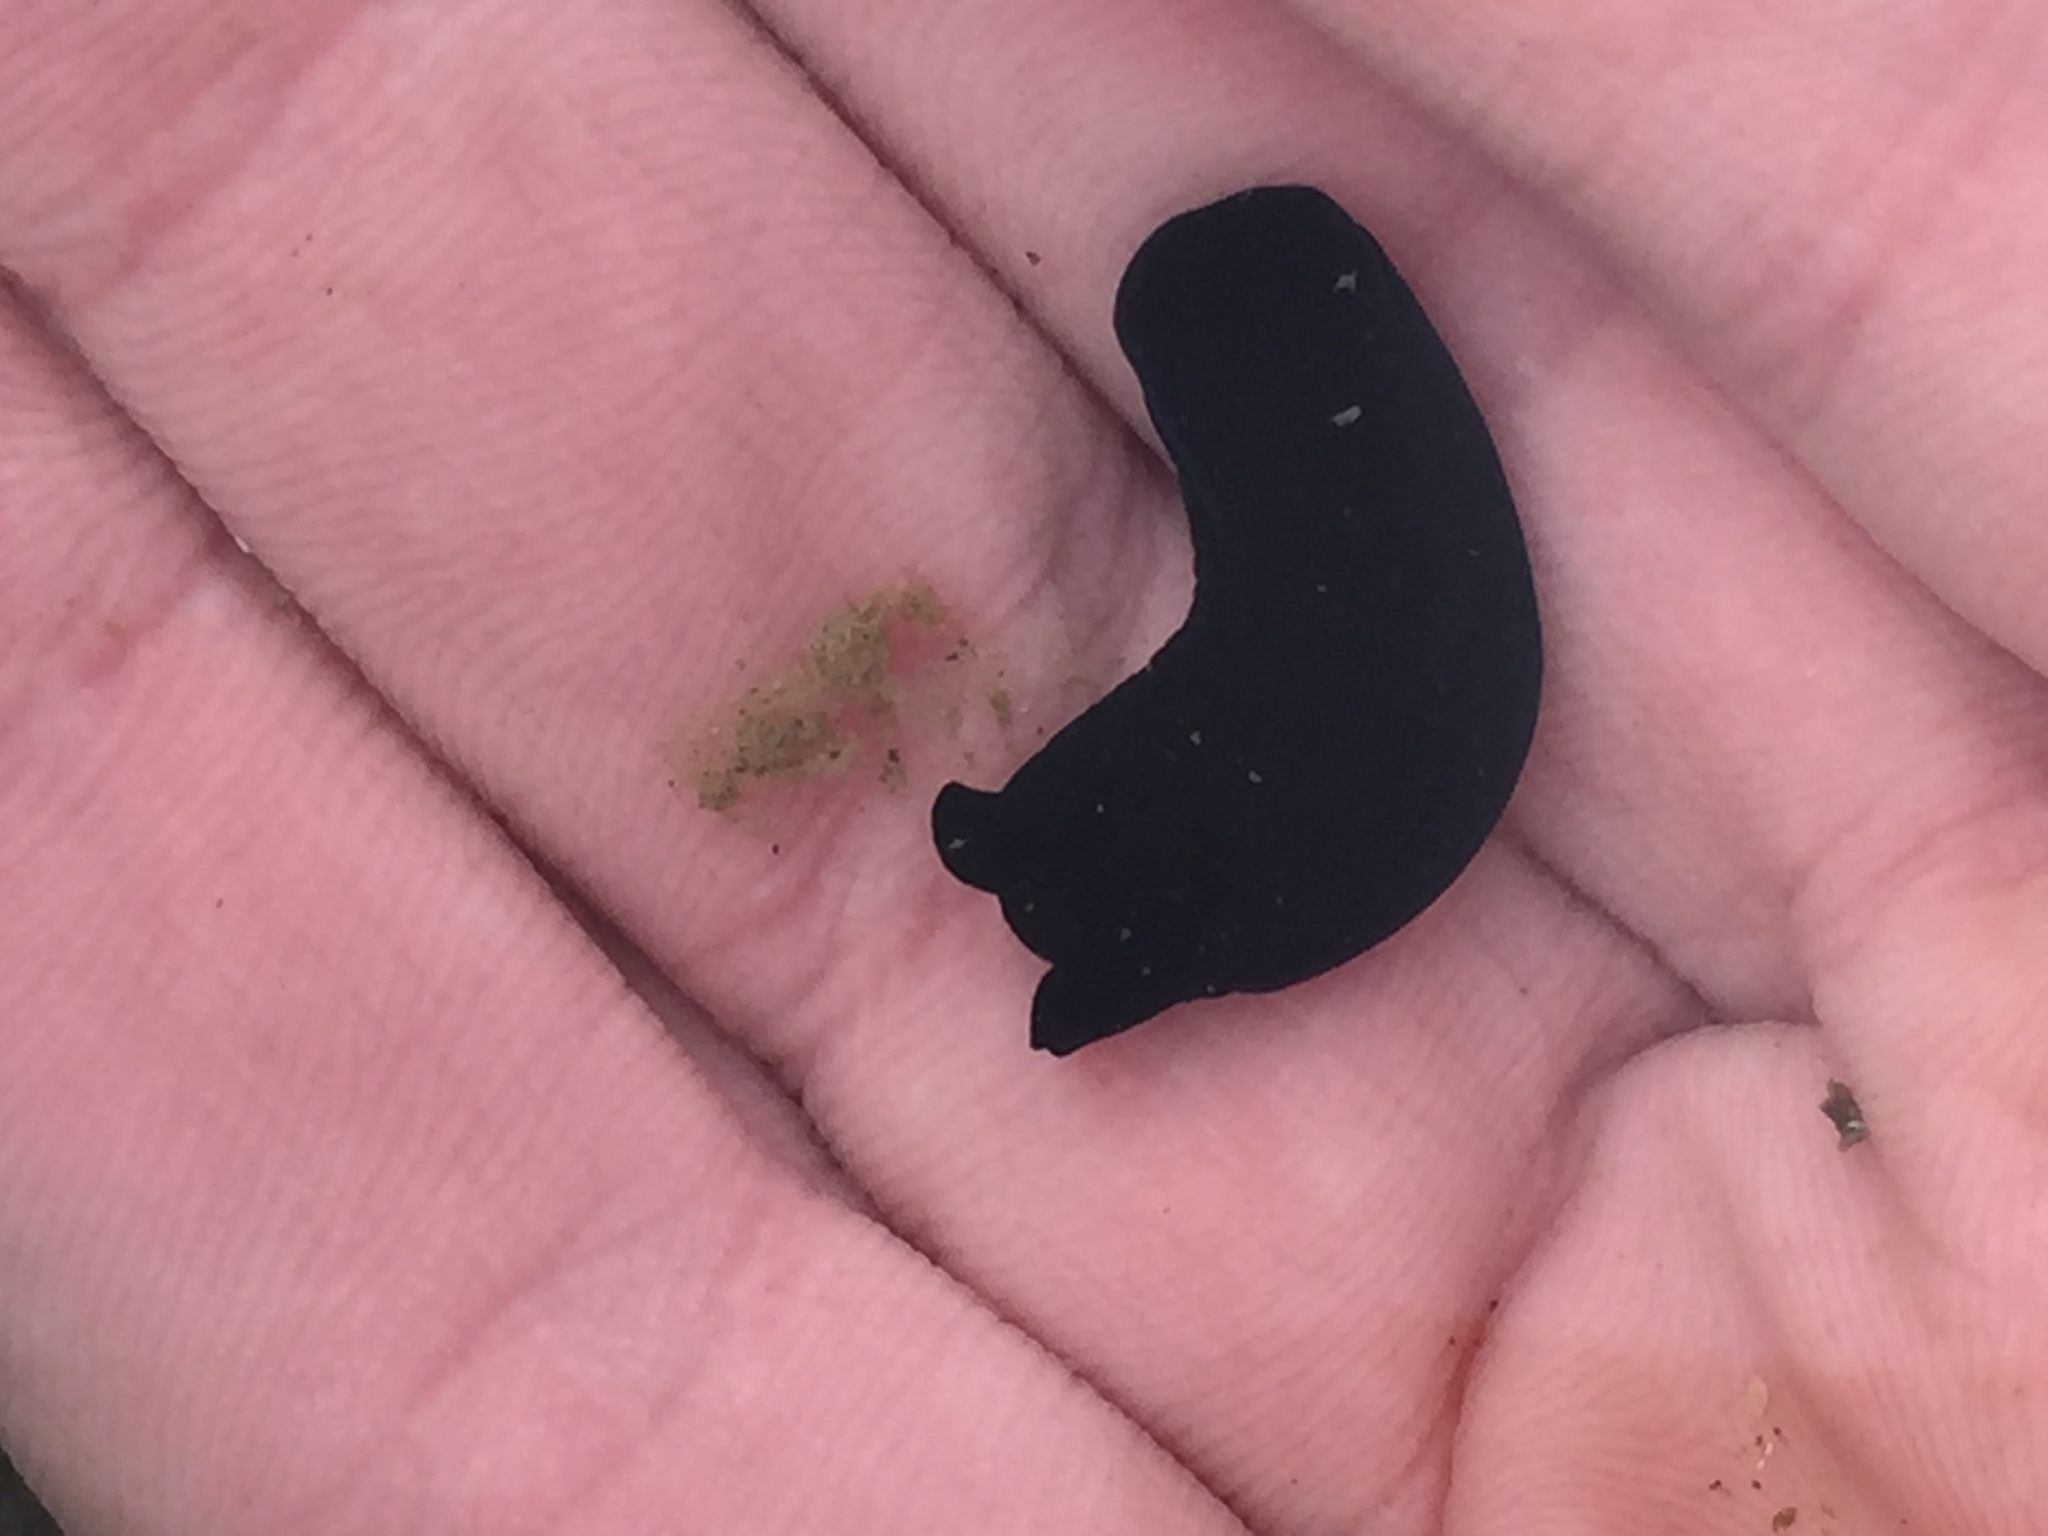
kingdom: Animalia
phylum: Mollusca
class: Gastropoda
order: Cephalaspidea
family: Aglajidae
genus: Melanochlamys
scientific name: Melanochlamys cylindrica
